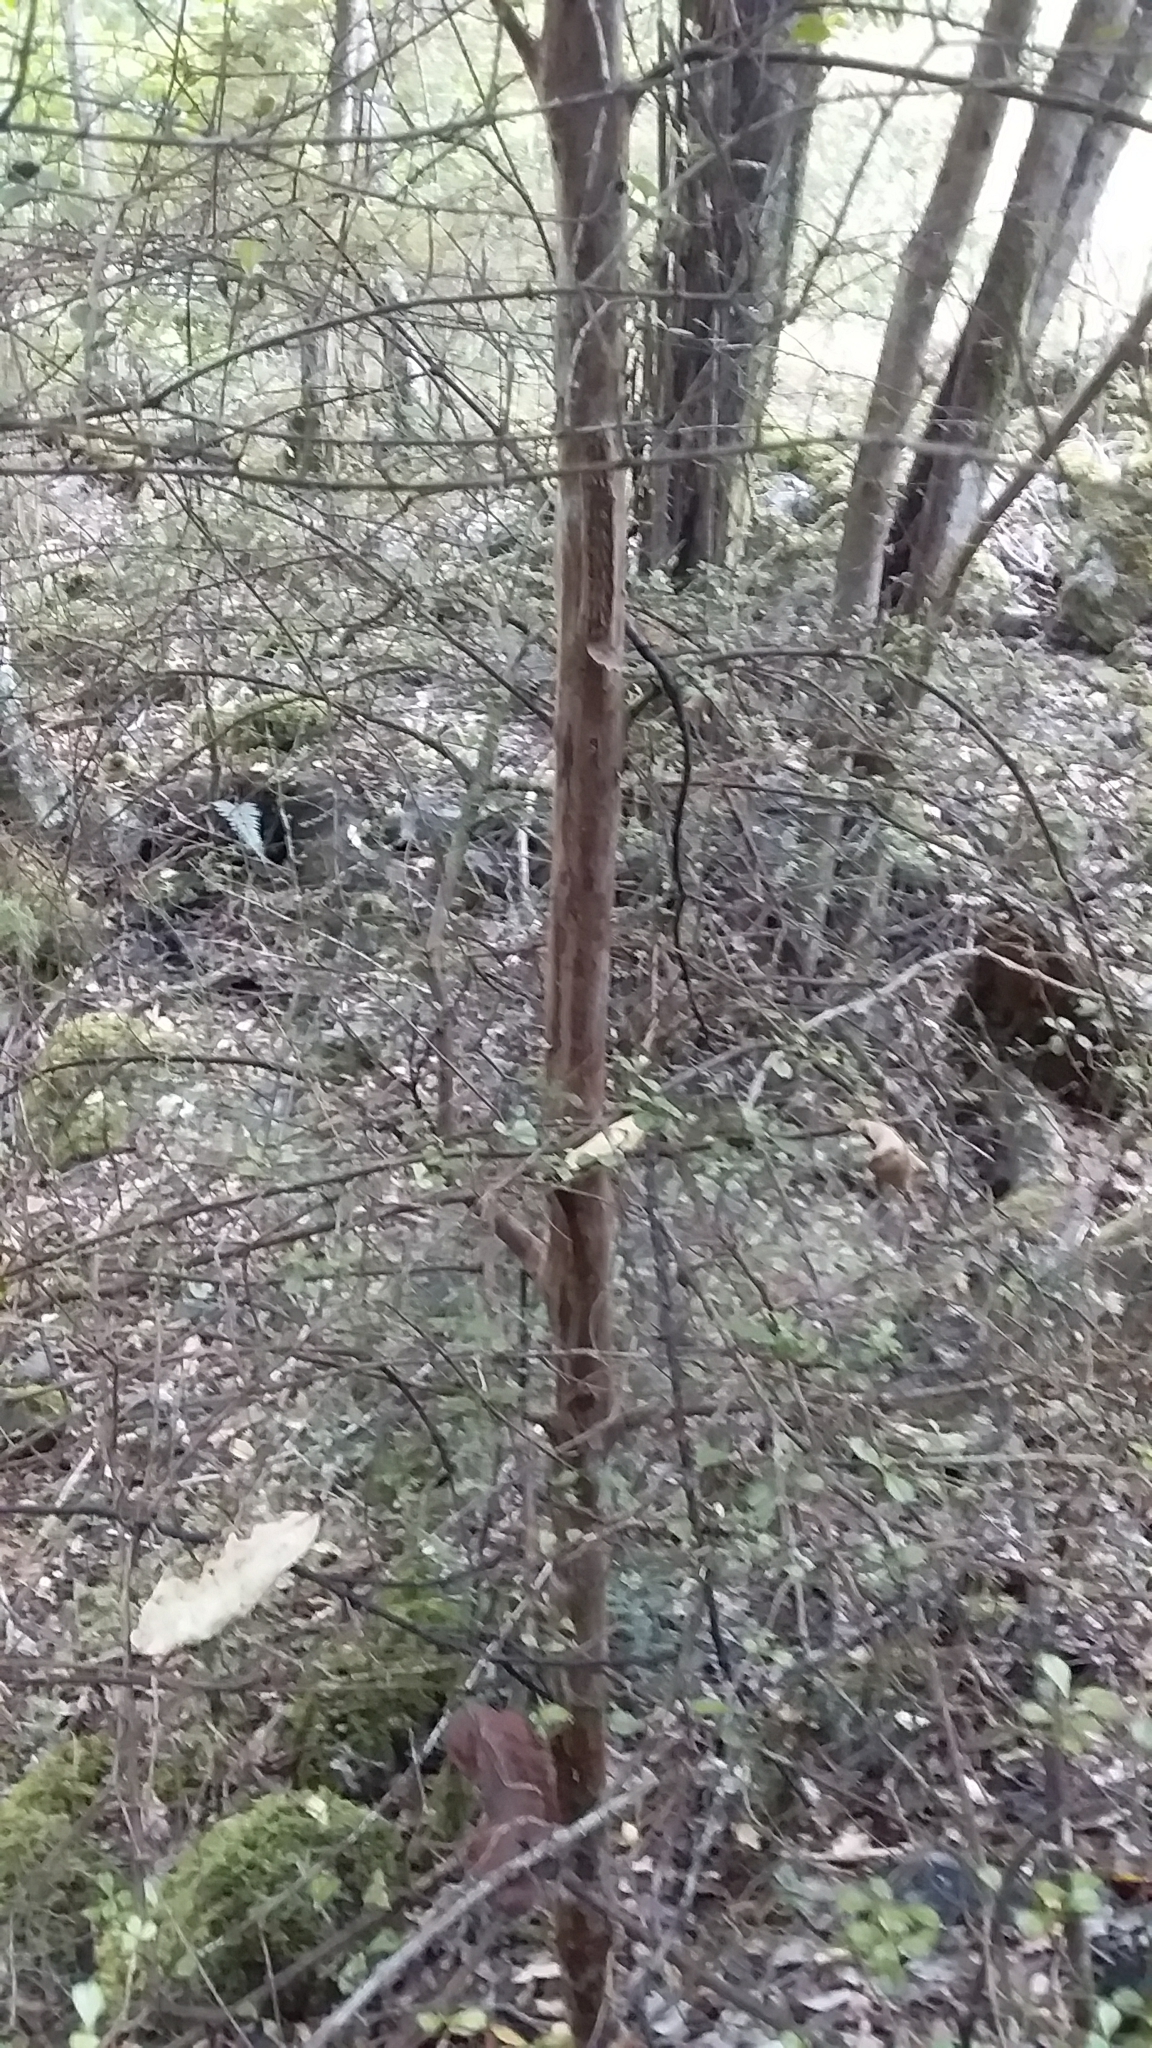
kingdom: Plantae
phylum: Tracheophyta
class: Magnoliopsida
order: Myrtales
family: Myrtaceae
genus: Lophomyrtus
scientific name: Lophomyrtus obcordata
